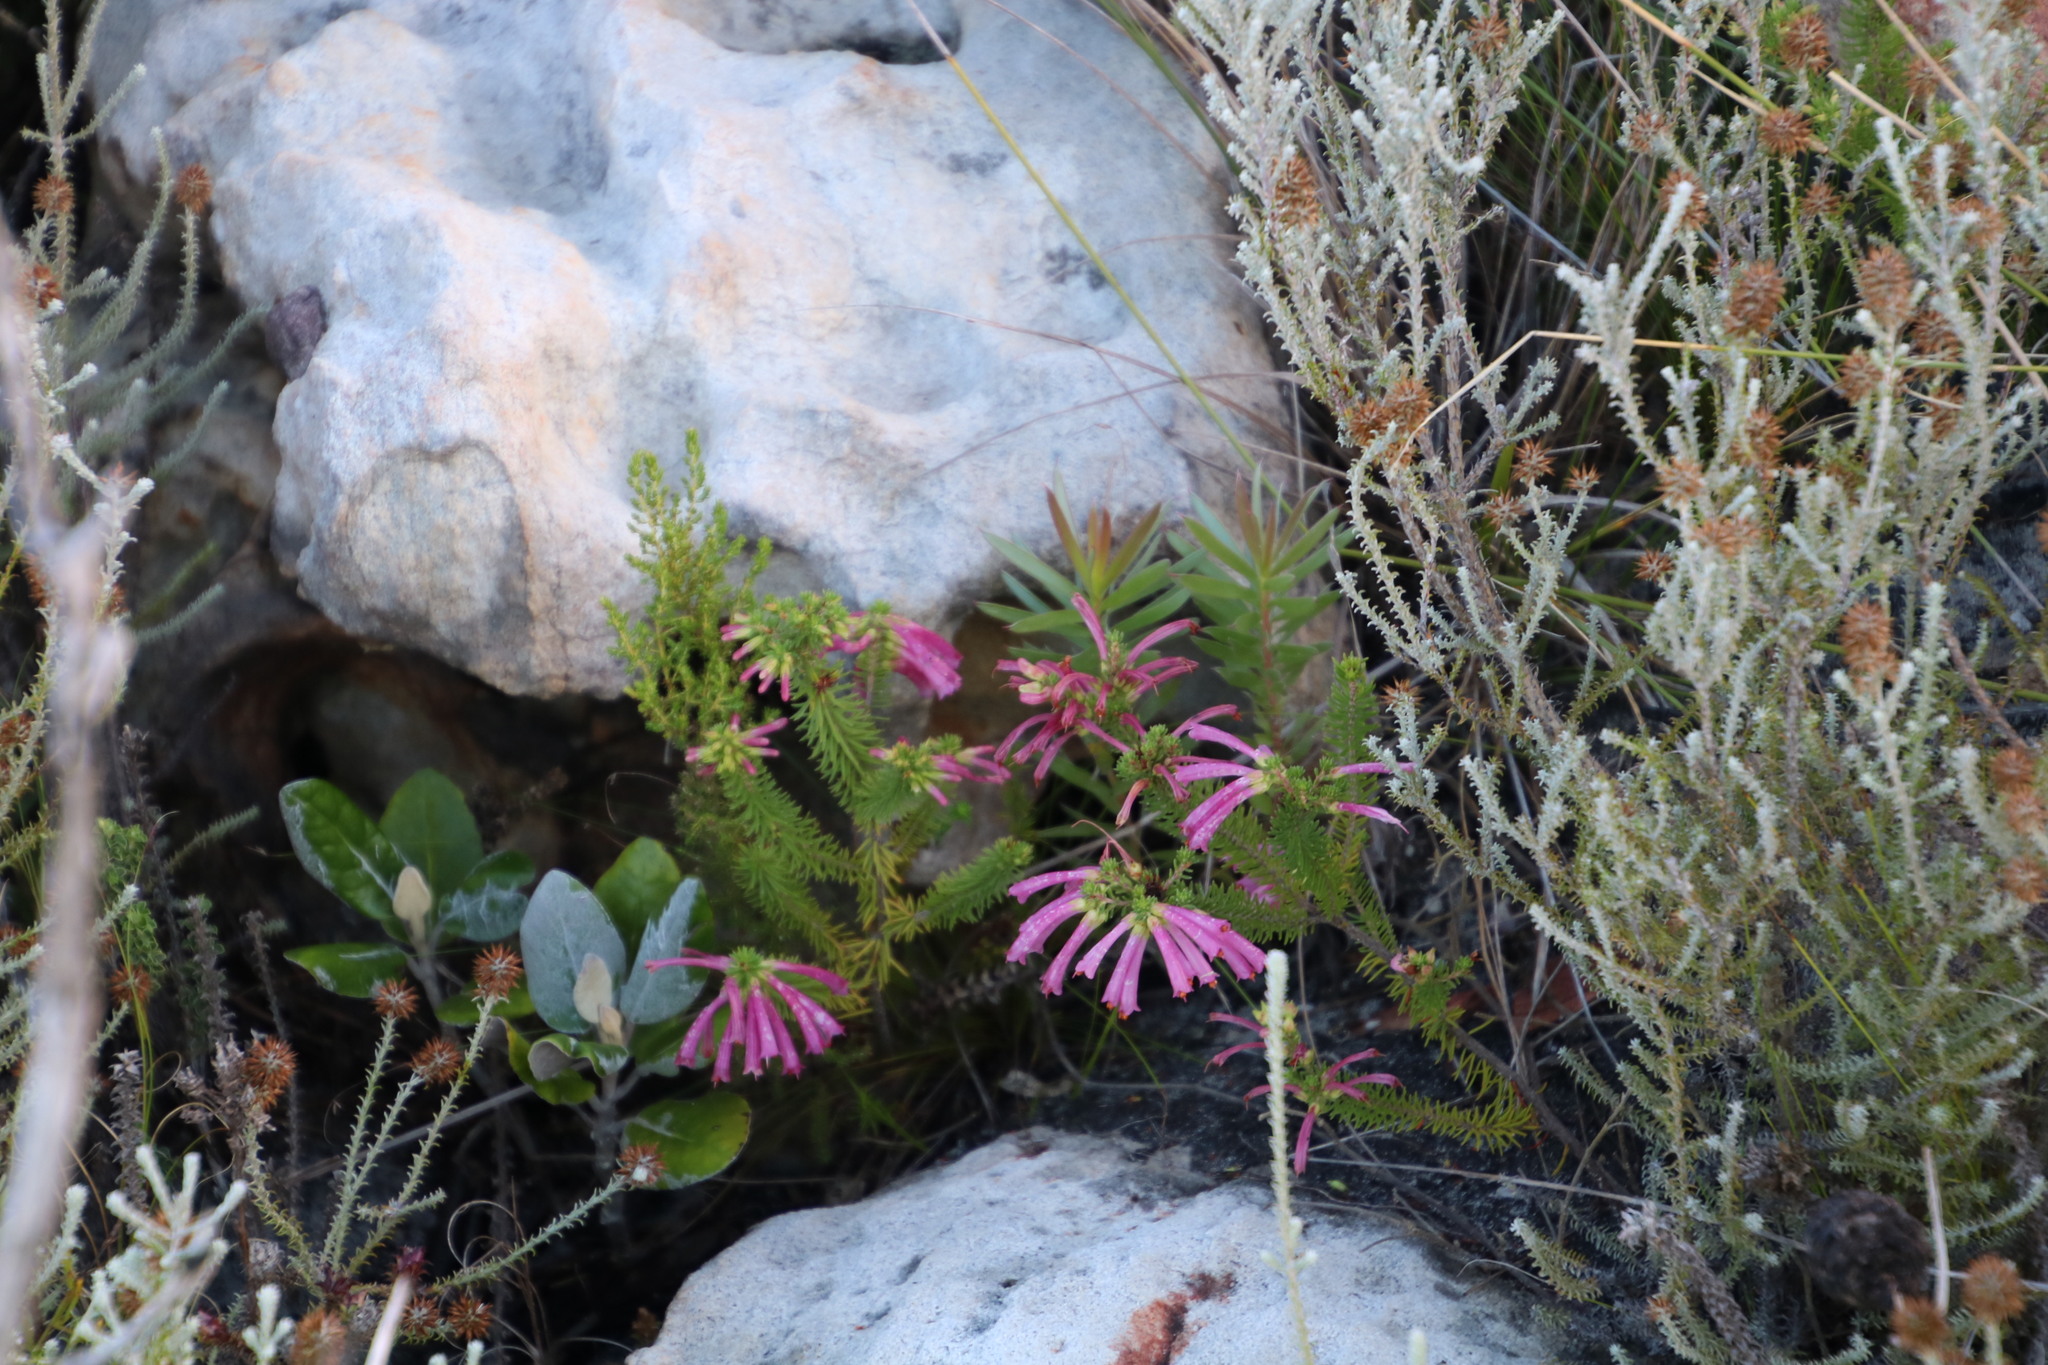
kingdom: Plantae
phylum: Tracheophyta
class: Magnoliopsida
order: Ericales
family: Ericaceae
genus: Erica
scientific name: Erica abietina
